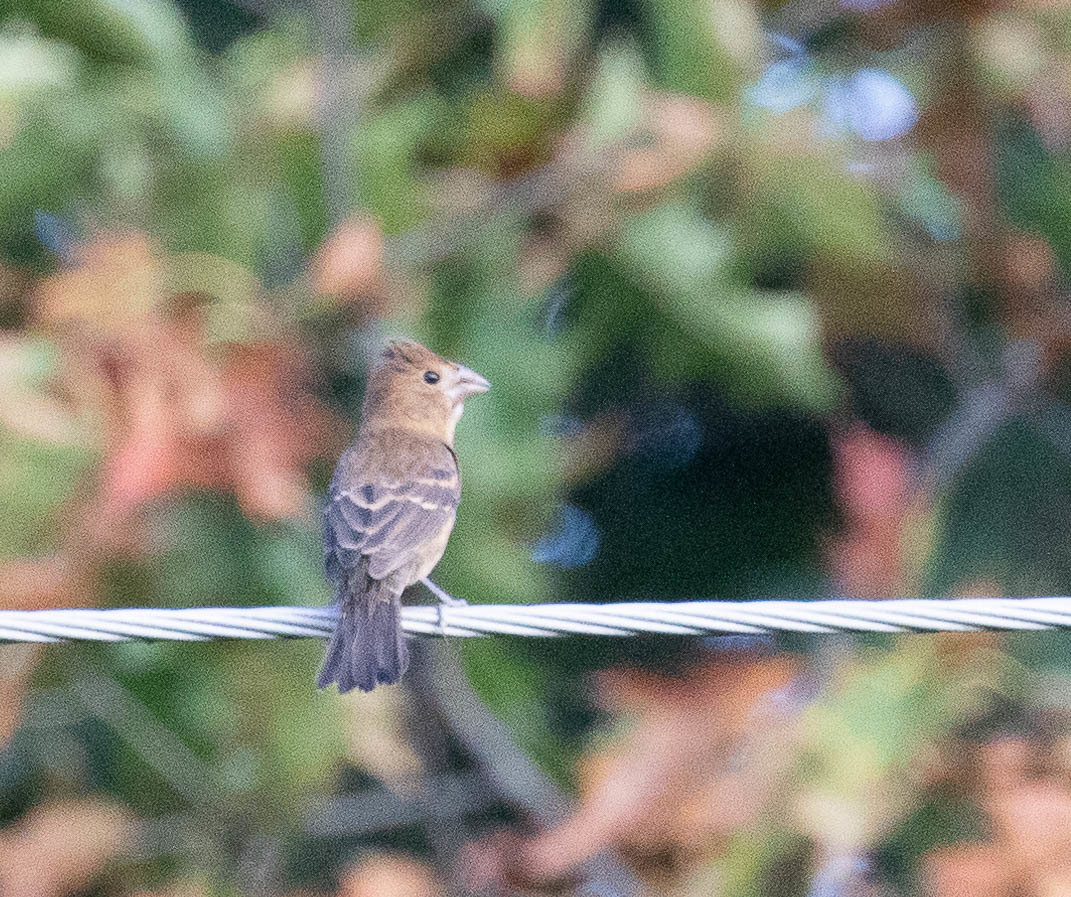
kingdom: Animalia
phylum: Chordata
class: Aves
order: Passeriformes
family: Cardinalidae
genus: Passerina
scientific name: Passerina caerulea
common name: Blue grosbeak
